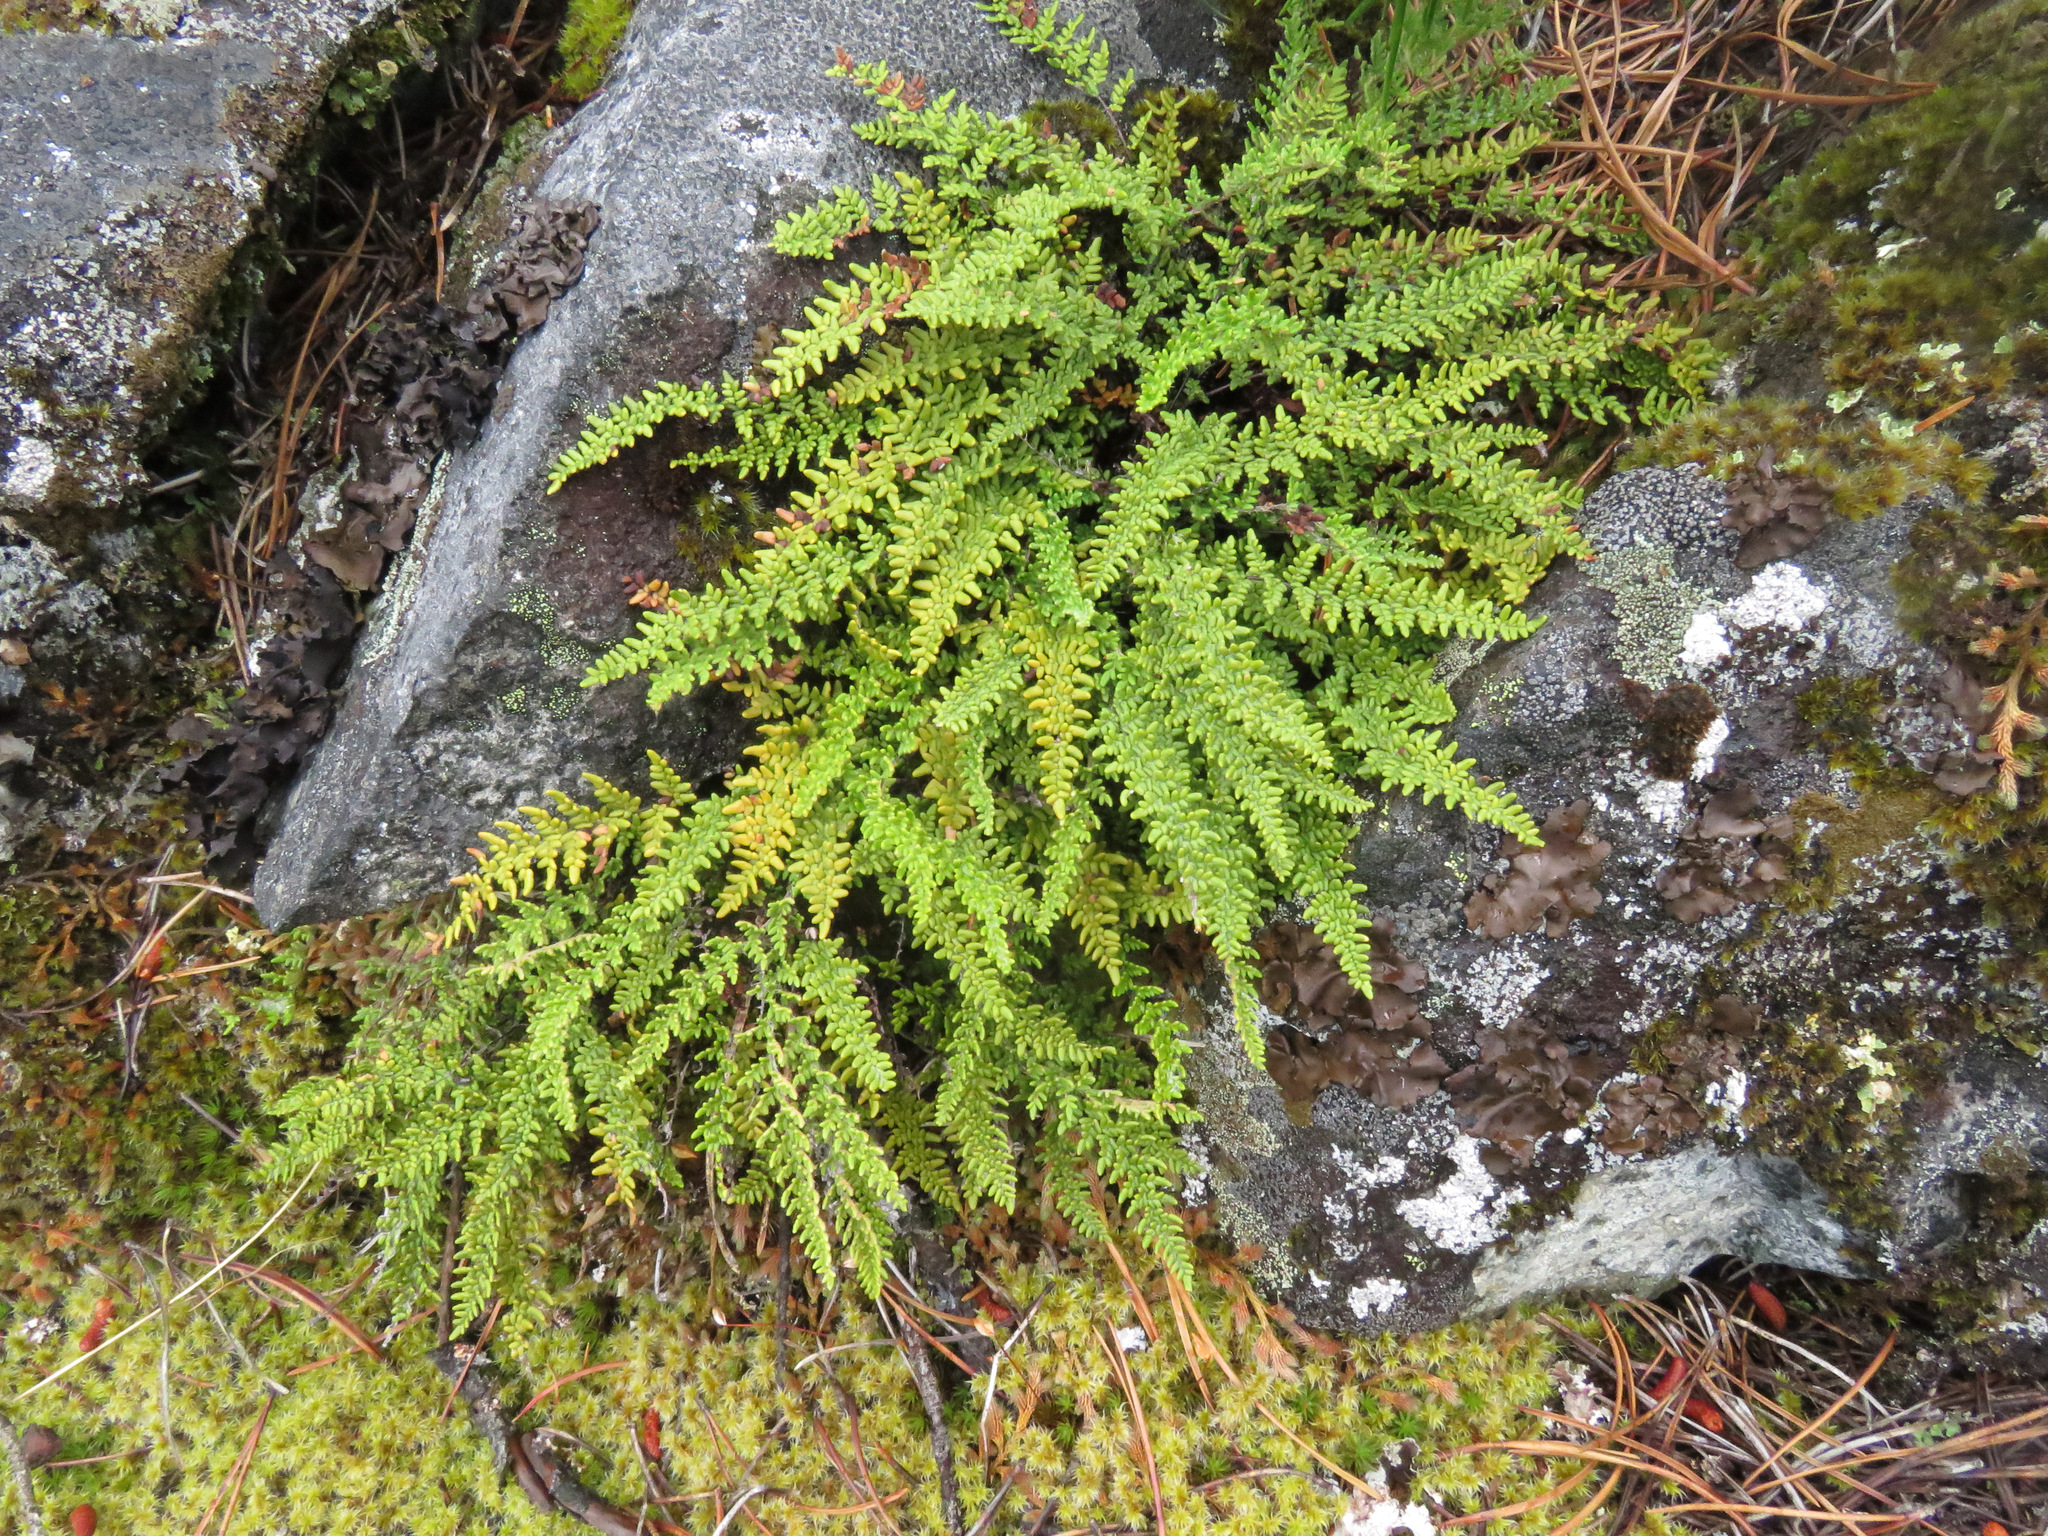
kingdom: Plantae
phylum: Tracheophyta
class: Polypodiopsida
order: Polypodiales
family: Pteridaceae
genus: Myriopteris
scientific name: Myriopteris gracillima
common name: Lace fern
